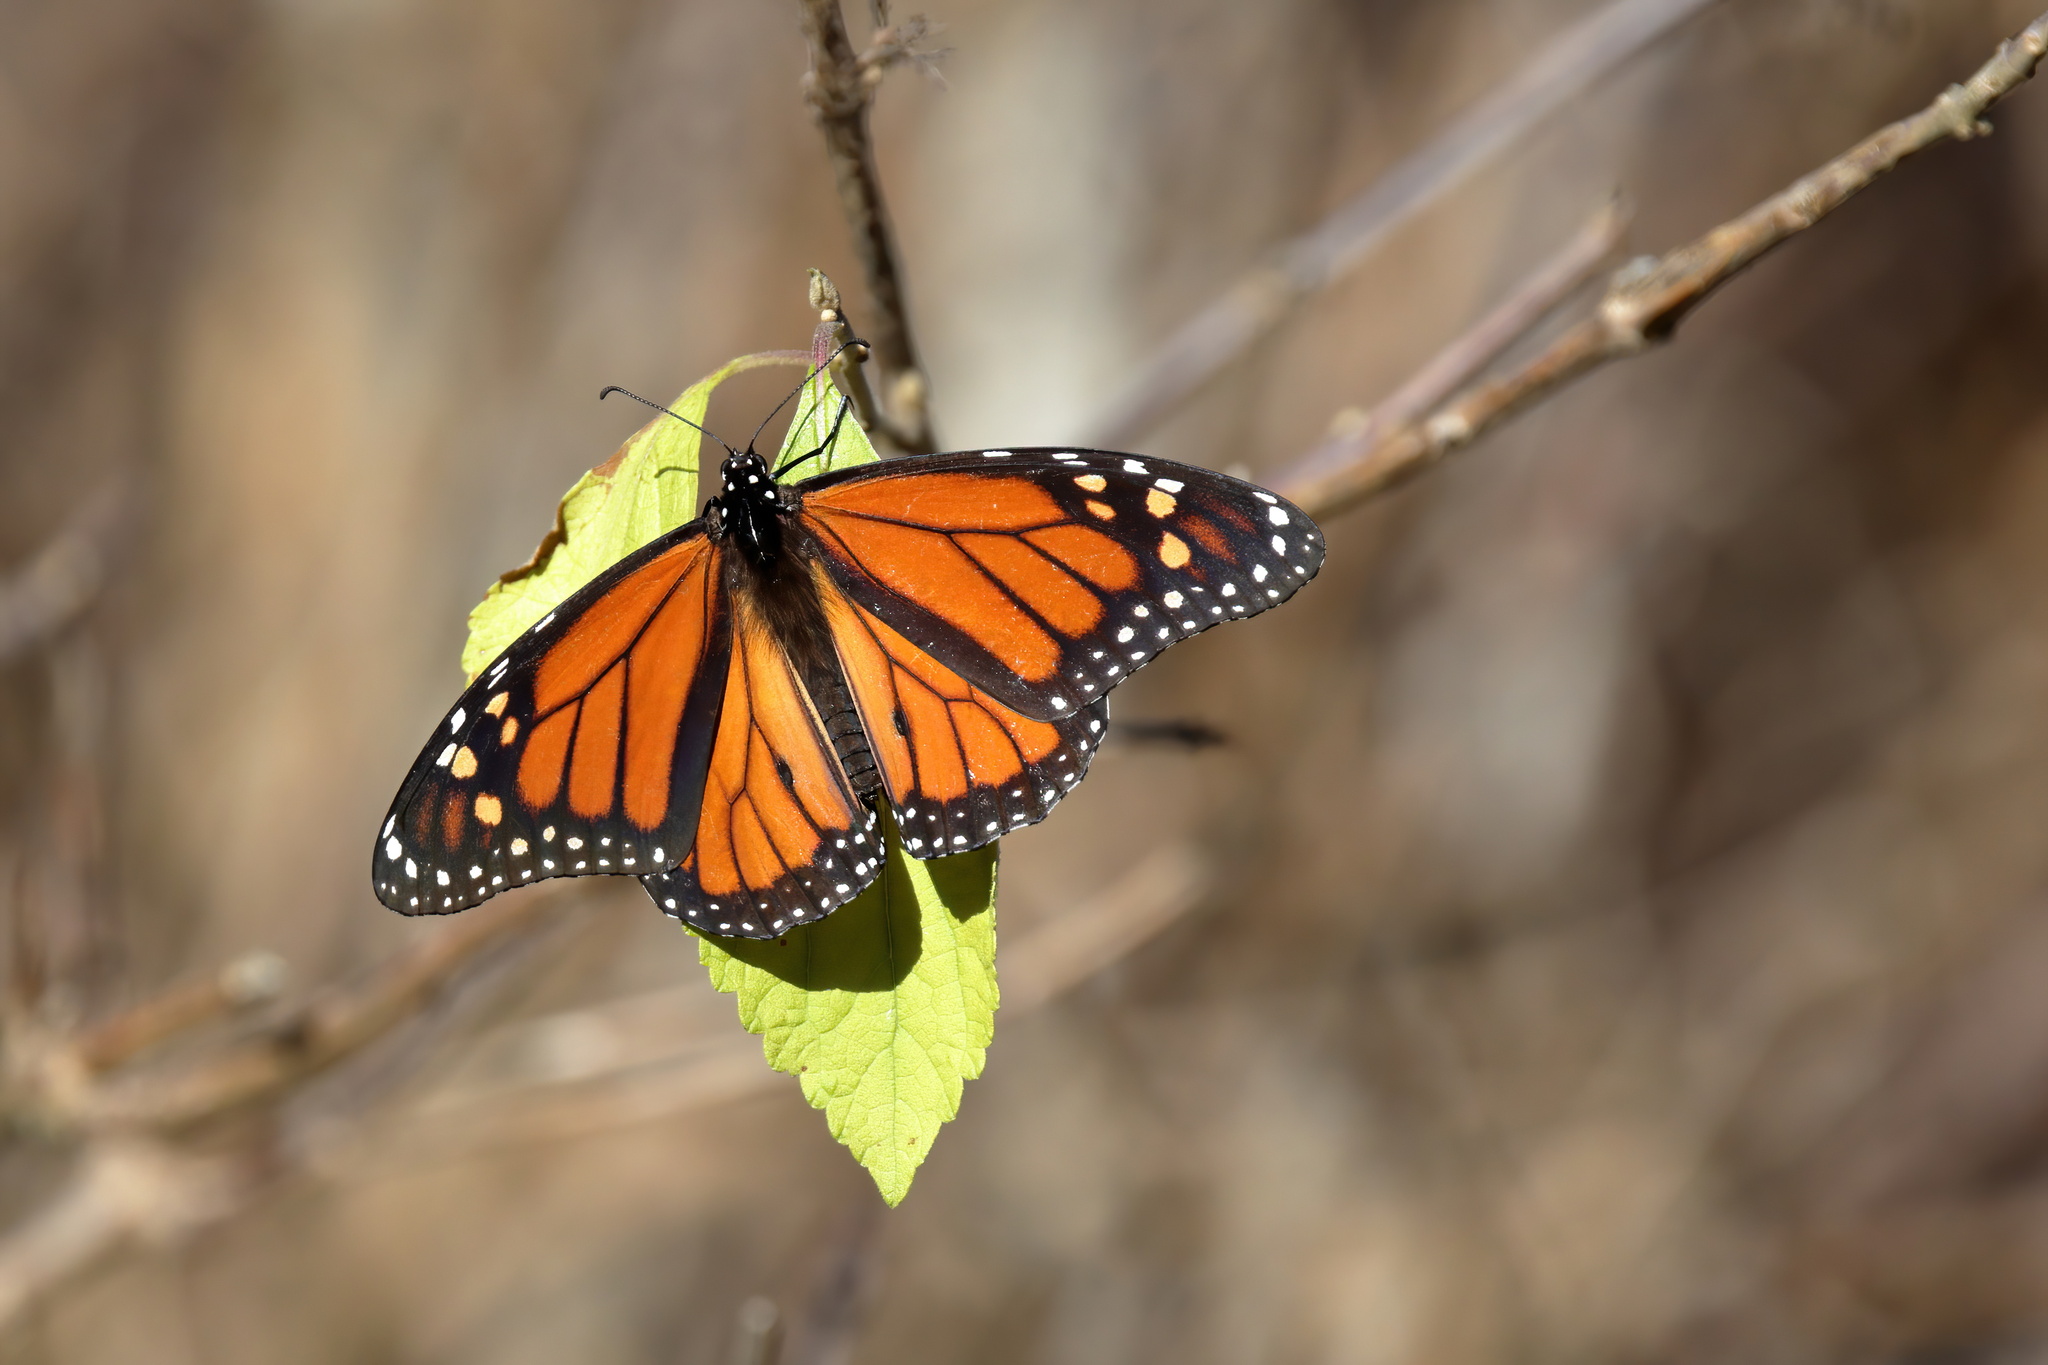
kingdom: Animalia
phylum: Arthropoda
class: Insecta
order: Lepidoptera
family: Nymphalidae
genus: Danaus
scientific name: Danaus plexippus
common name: Monarch
